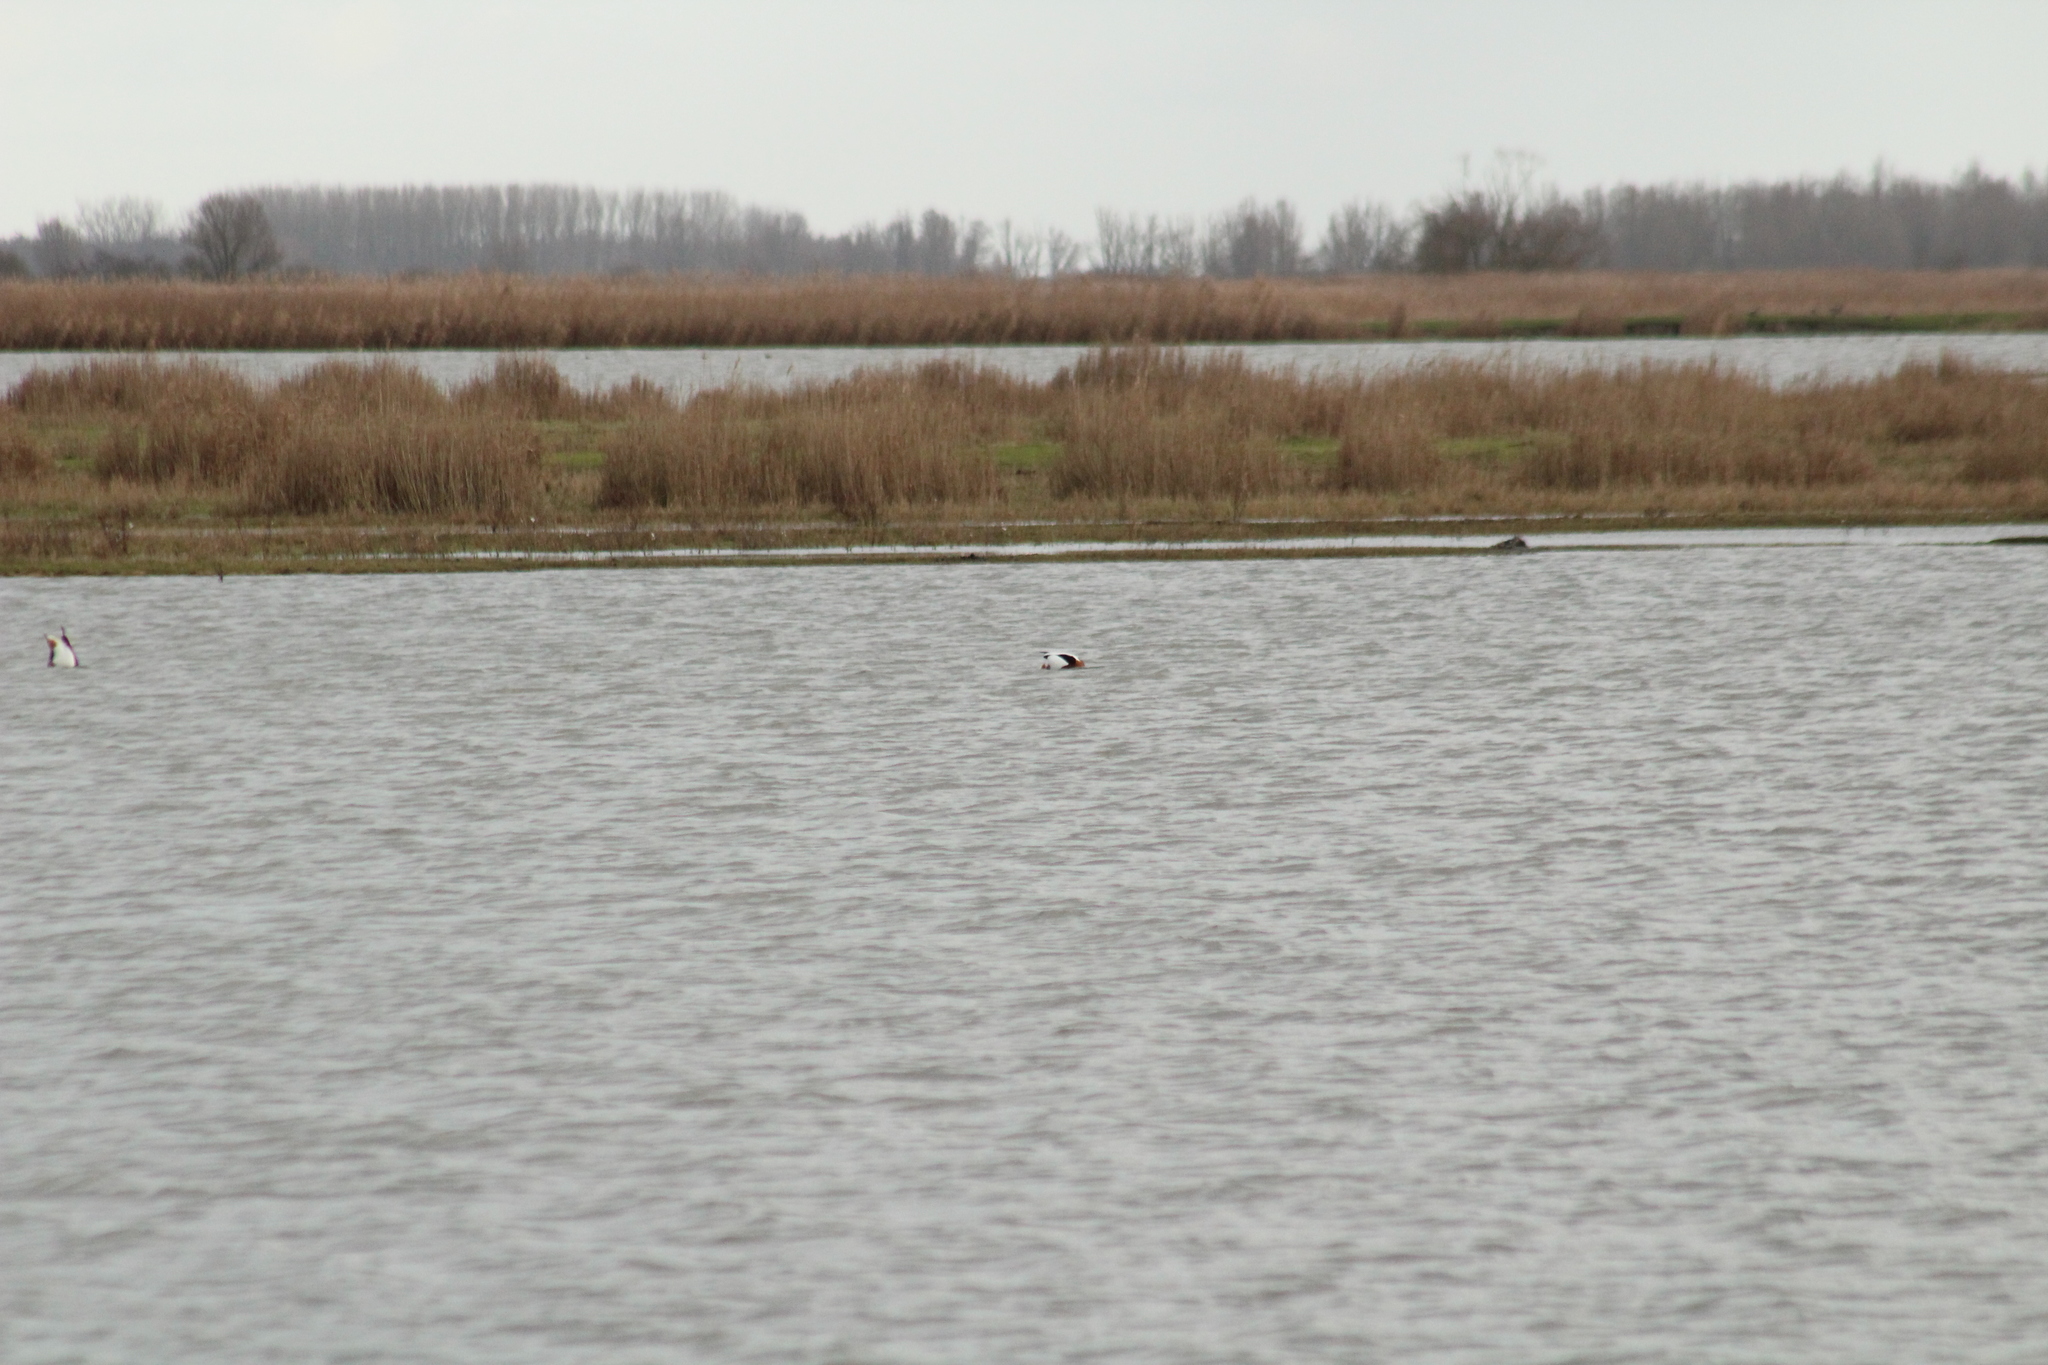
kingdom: Animalia
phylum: Chordata
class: Aves
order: Anseriformes
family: Anatidae
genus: Tadorna
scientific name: Tadorna tadorna
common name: Common shelduck
